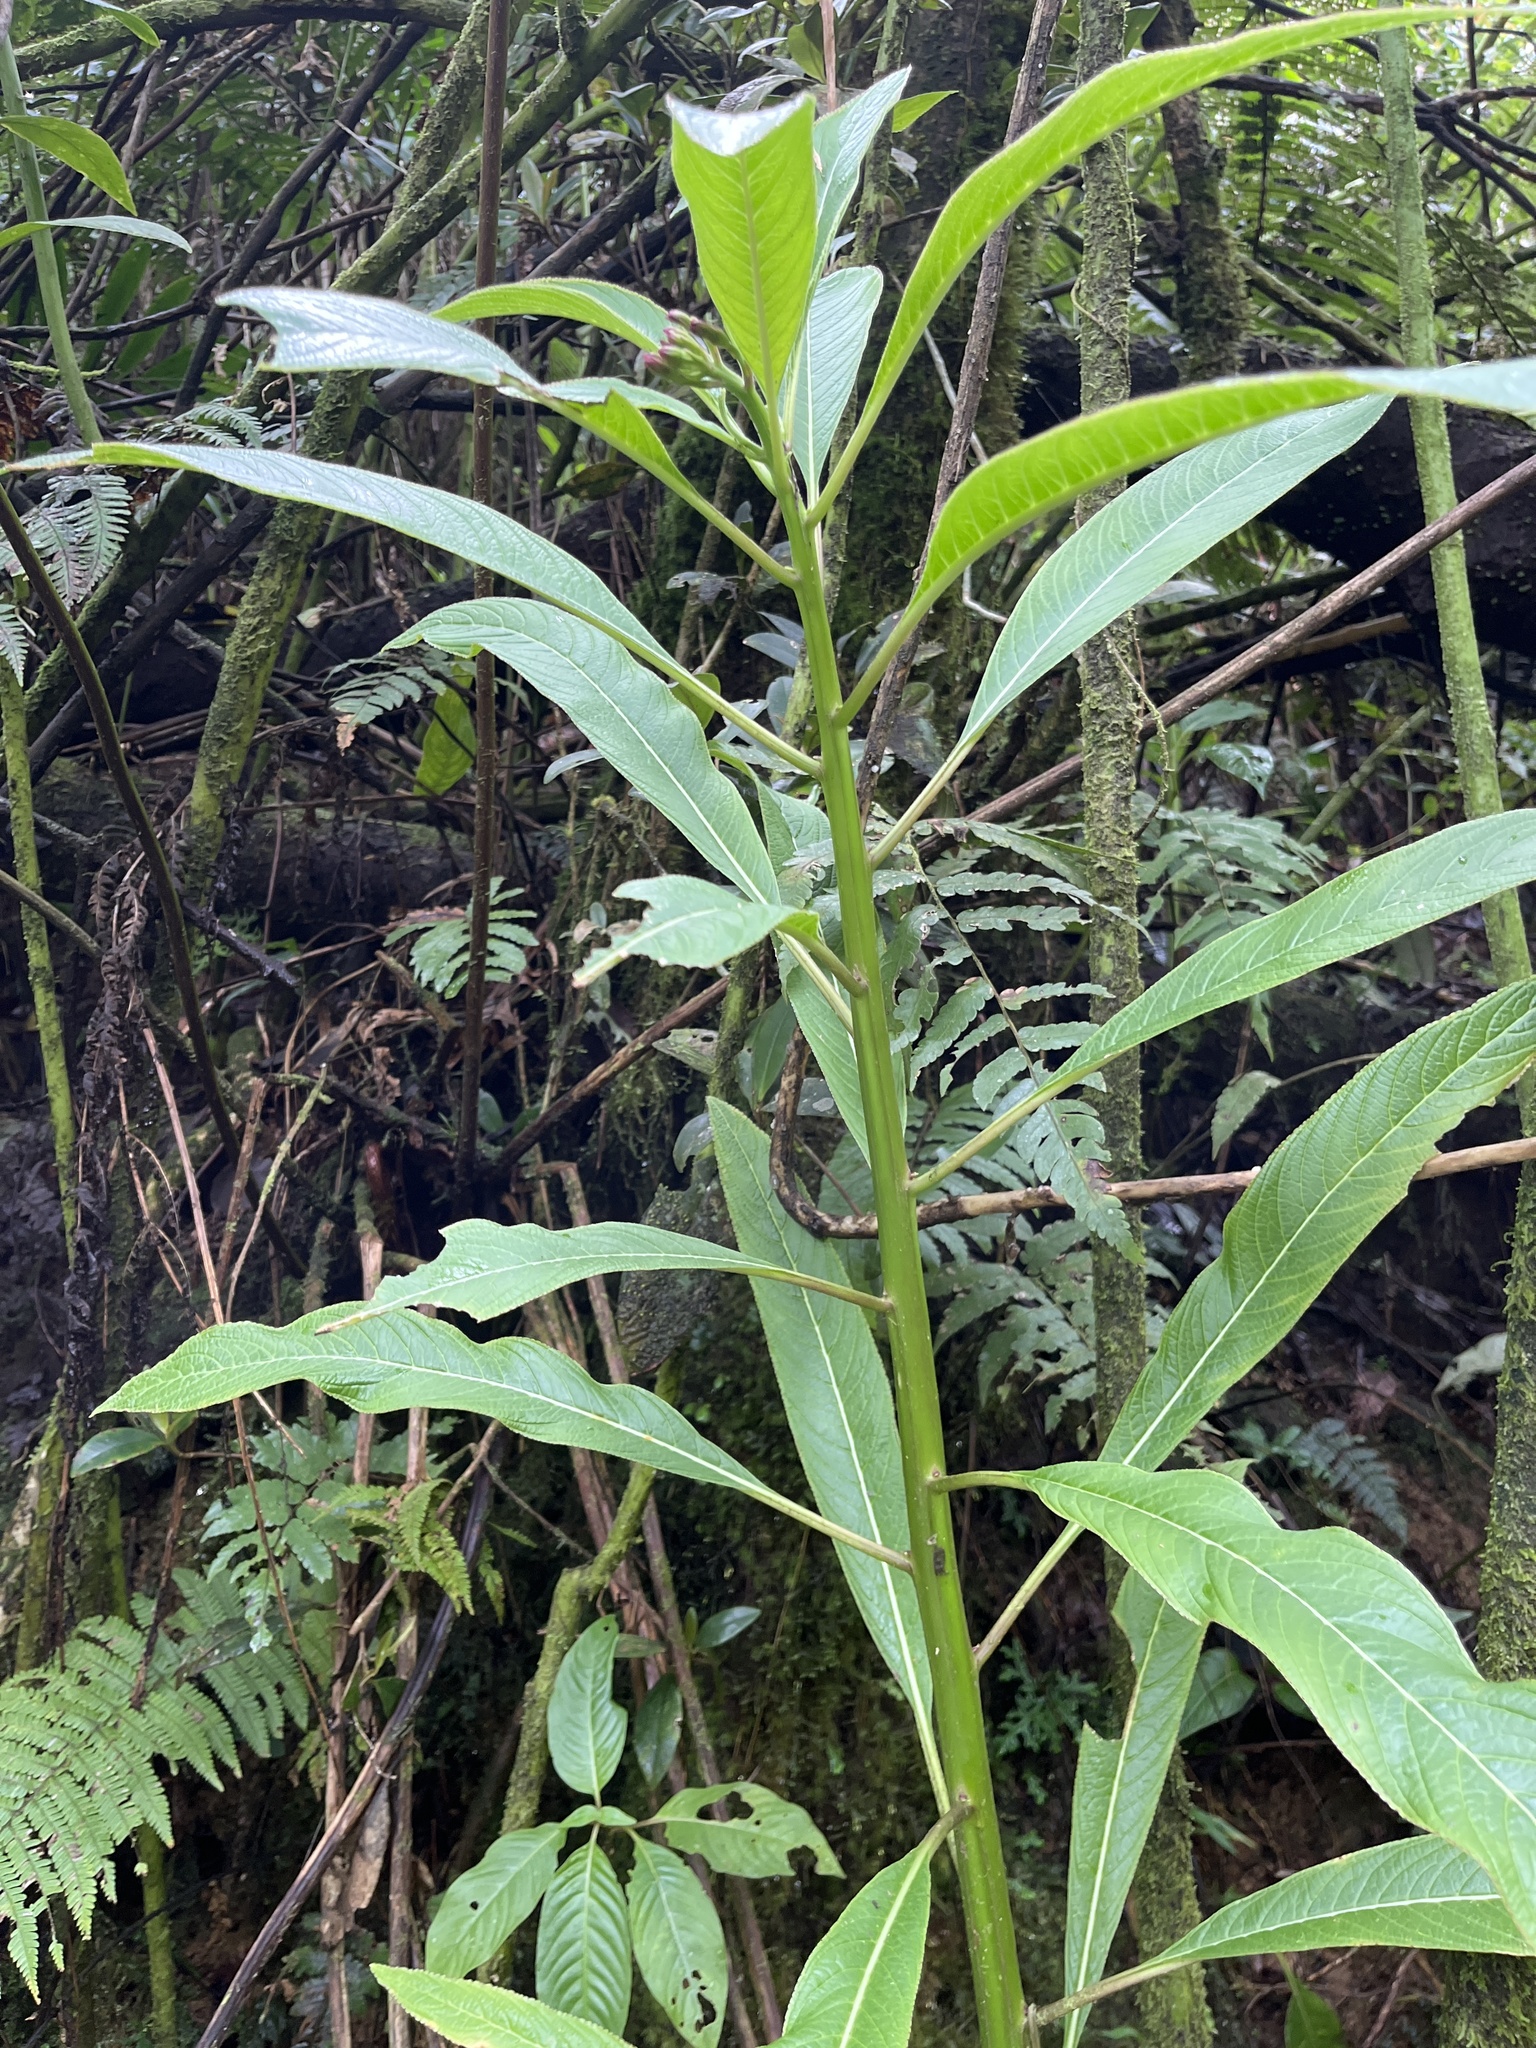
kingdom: Plantae
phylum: Tracheophyta
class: Magnoliopsida
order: Asterales
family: Campanulaceae
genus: Lobelia
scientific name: Lobelia portoricensis
